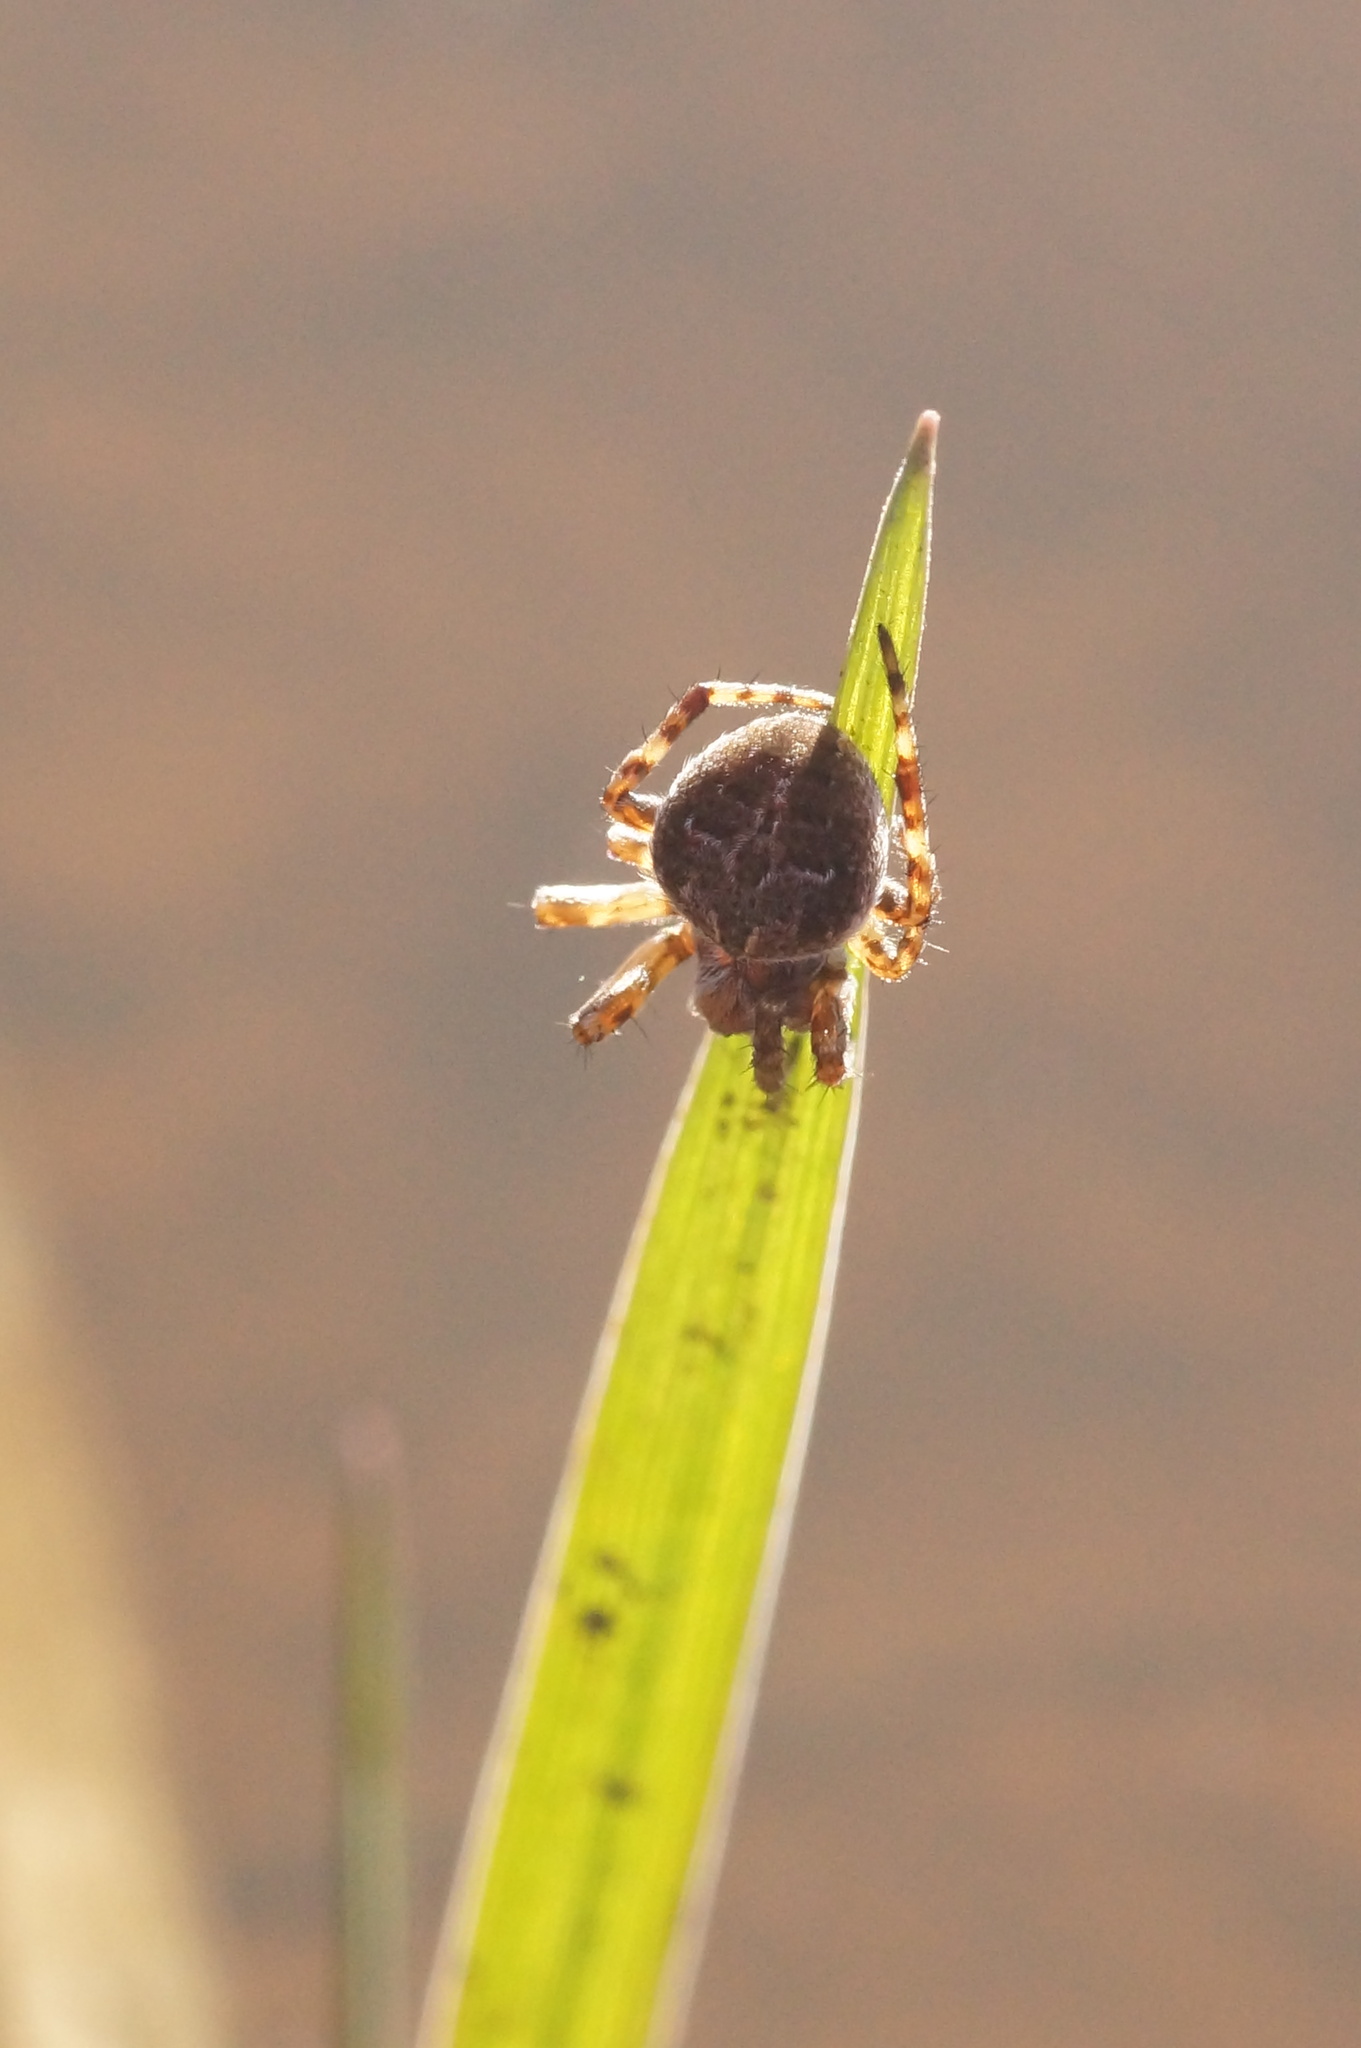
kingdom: Animalia
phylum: Arthropoda
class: Arachnida
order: Araneae
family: Araneidae
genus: Agalenatea
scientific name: Agalenatea redii
